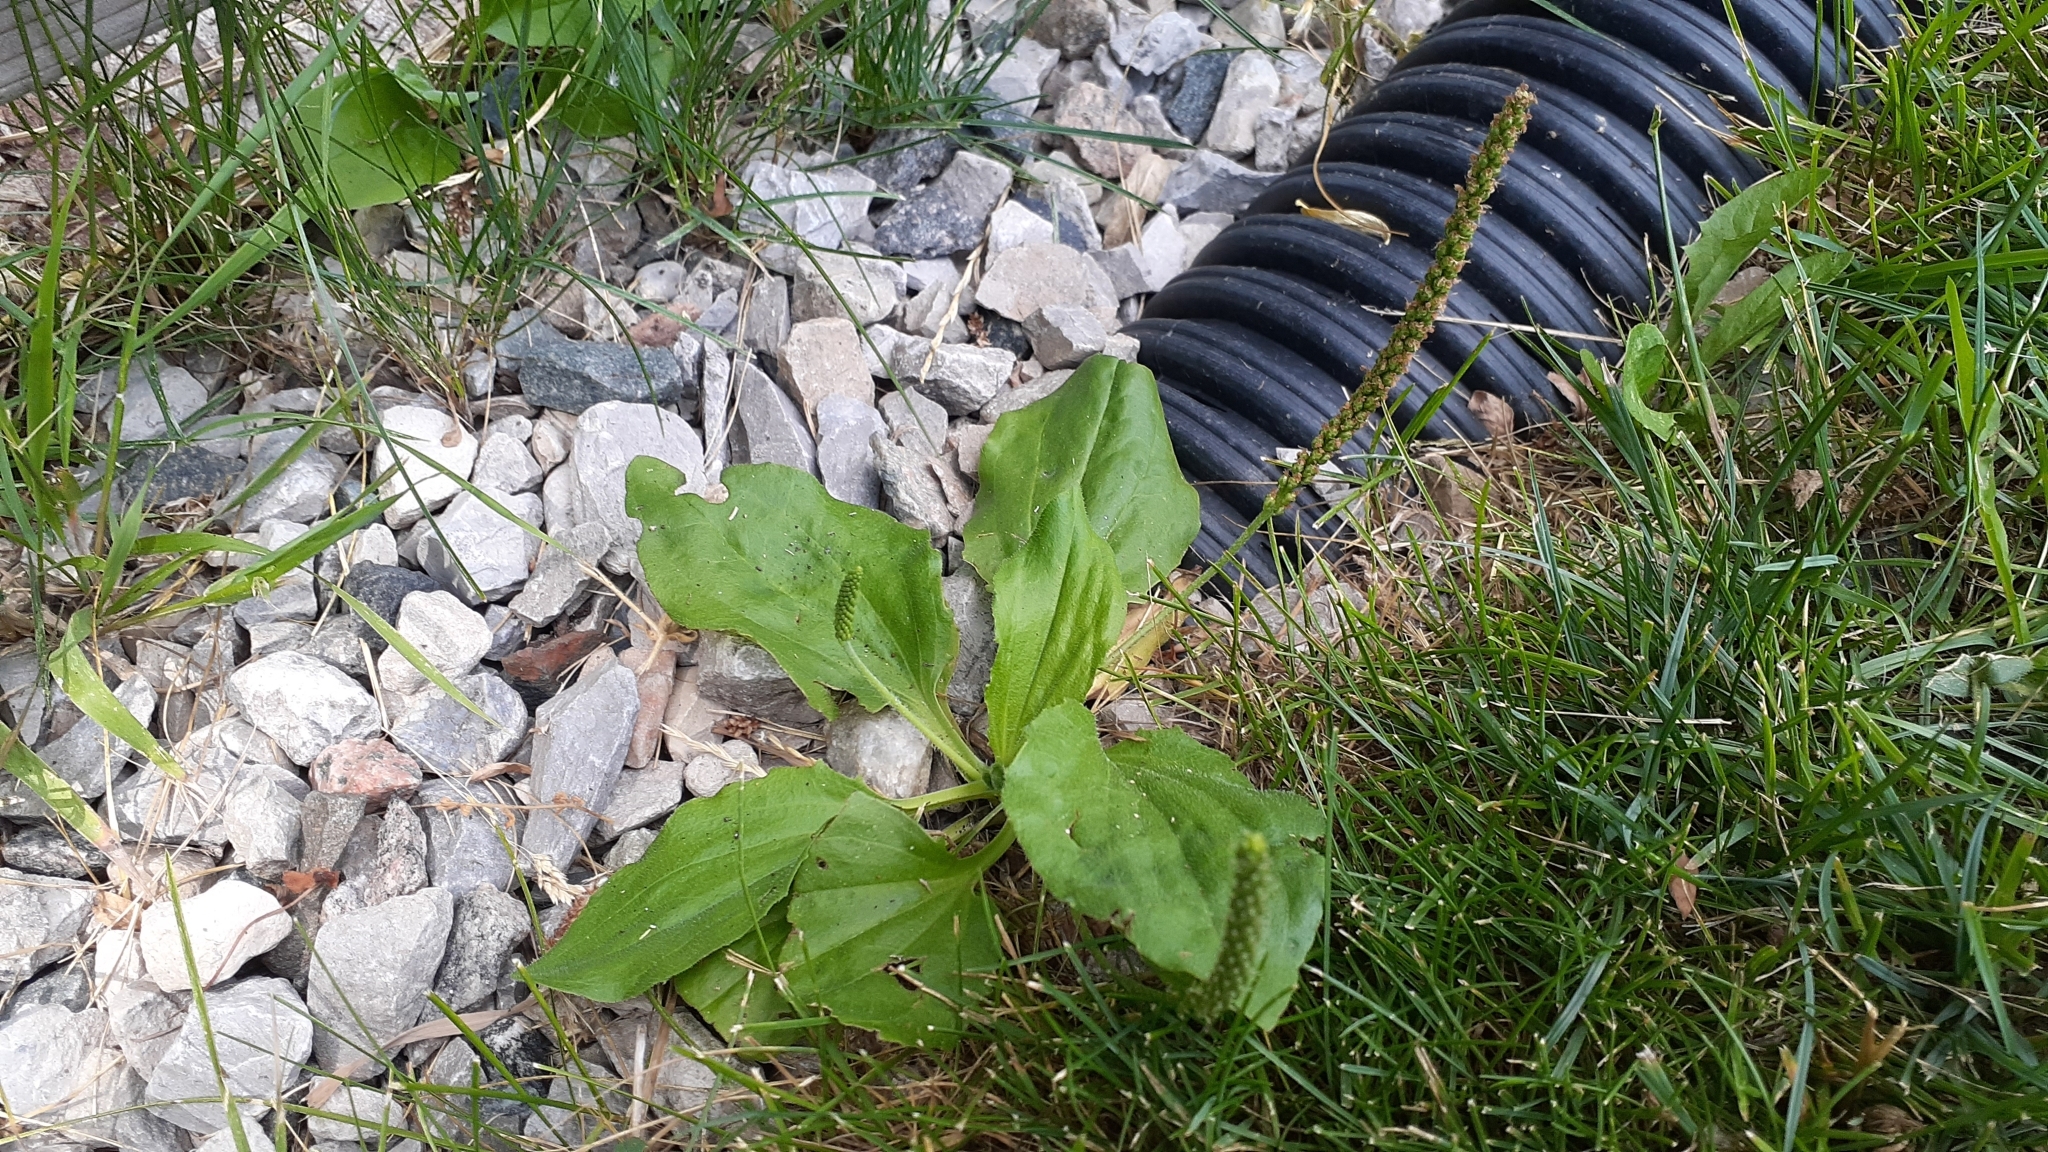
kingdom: Plantae
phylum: Tracheophyta
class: Magnoliopsida
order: Lamiales
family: Plantaginaceae
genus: Plantago
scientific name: Plantago major
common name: Common plantain
